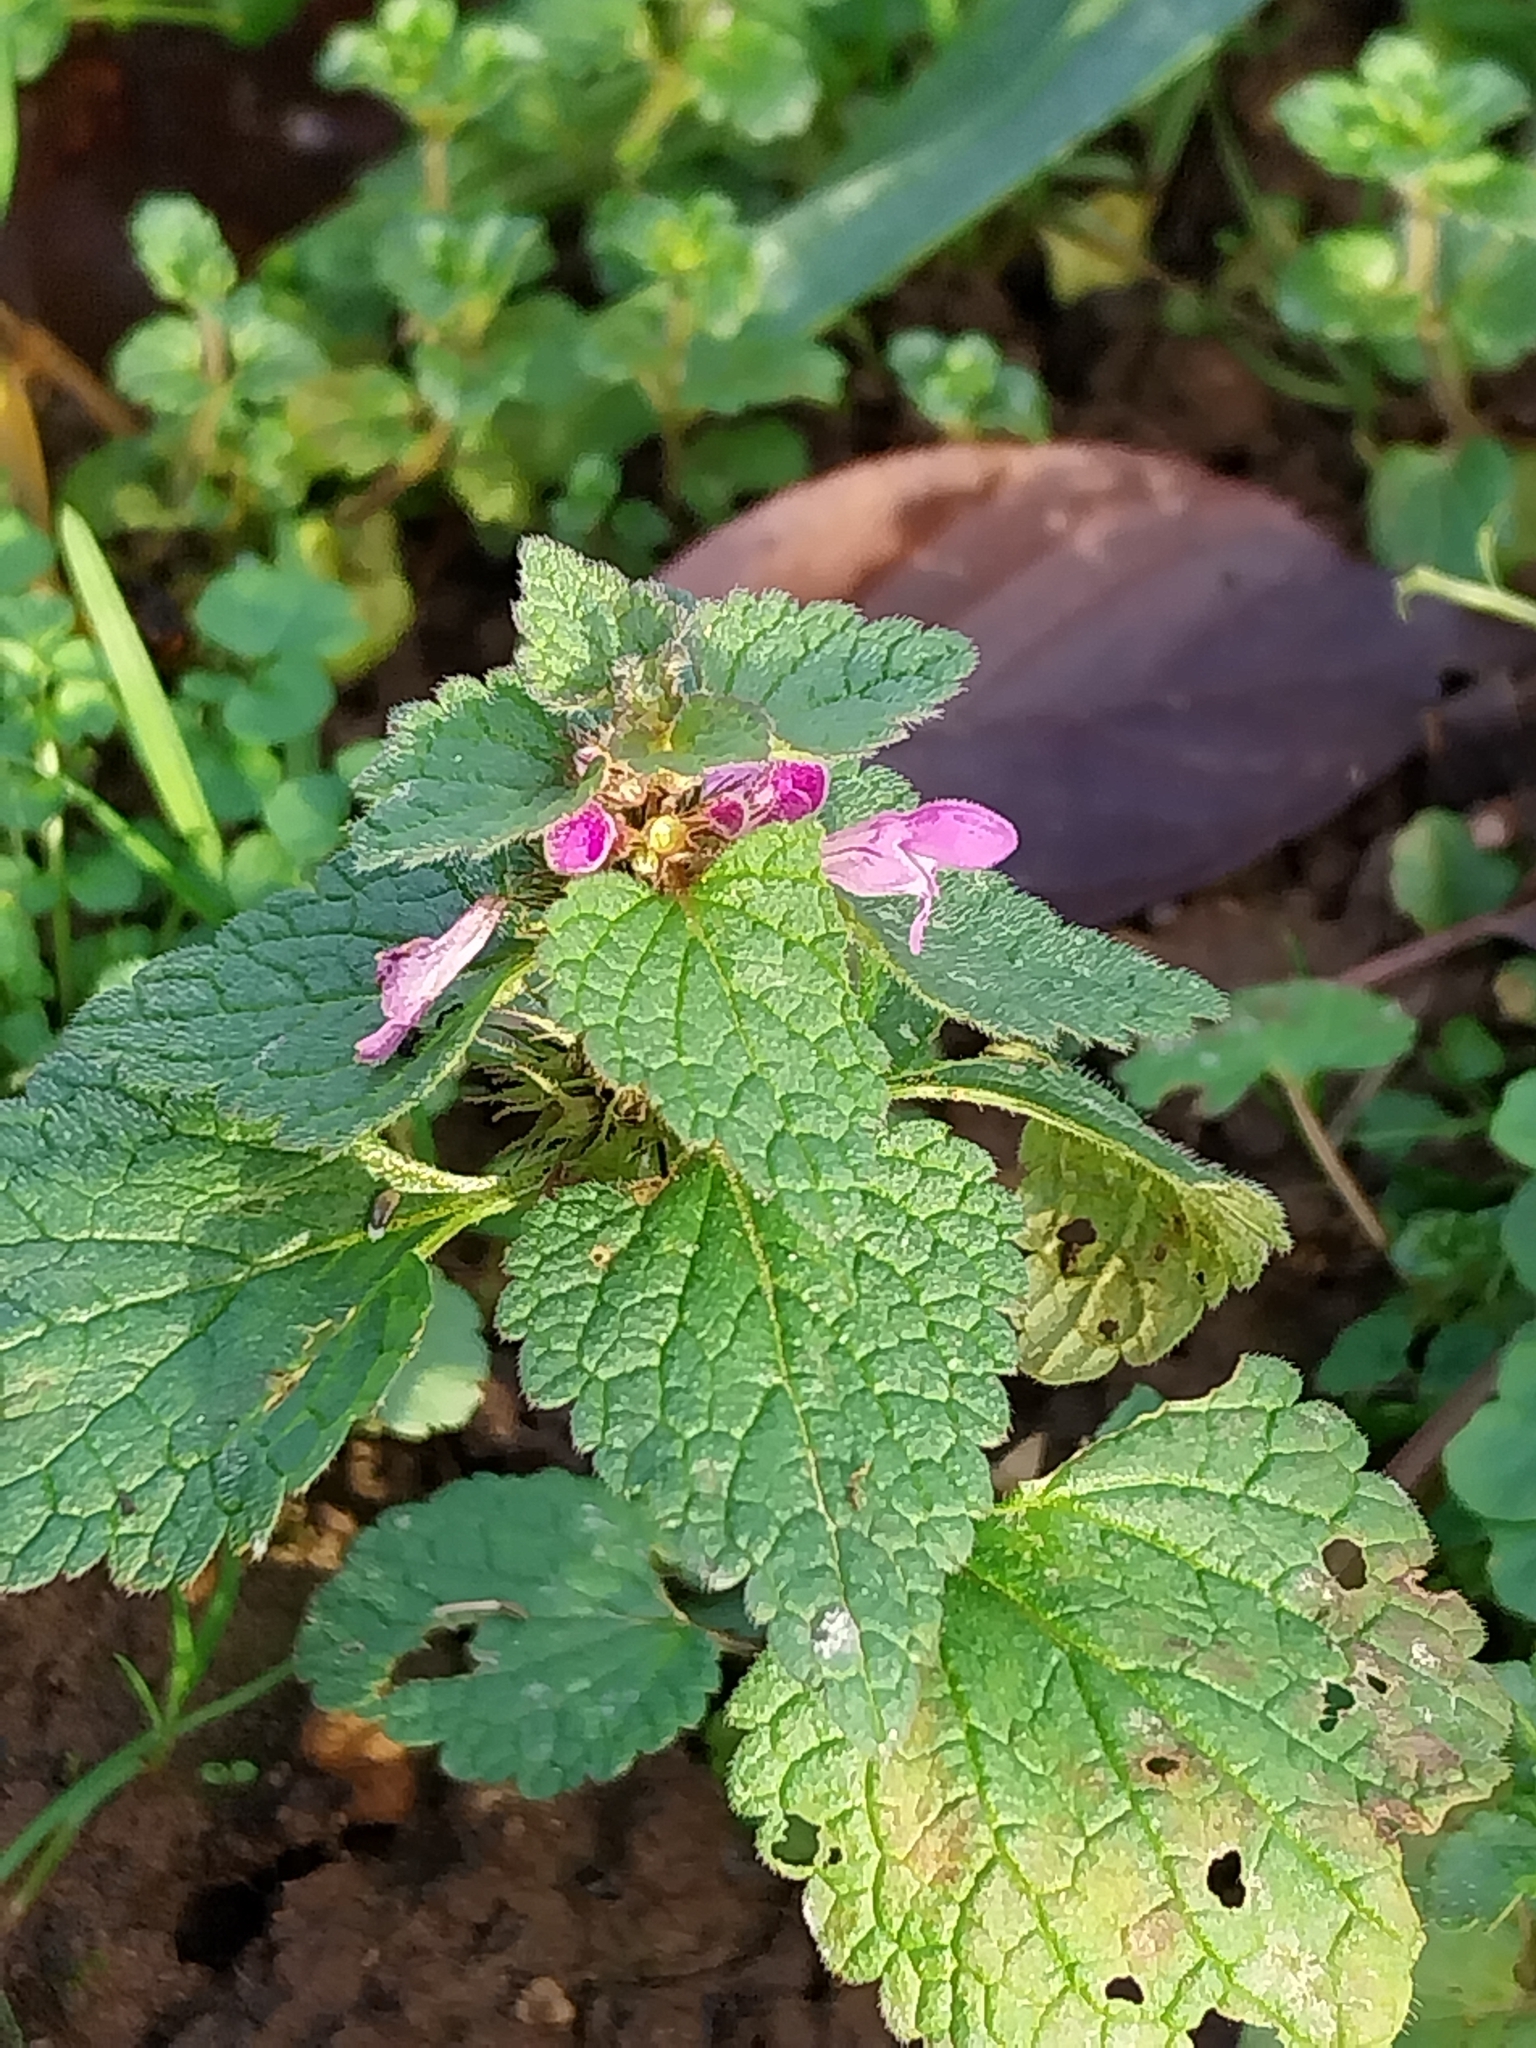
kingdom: Plantae
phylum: Tracheophyta
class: Magnoliopsida
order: Lamiales
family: Lamiaceae
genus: Lamium
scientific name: Lamium purpureum
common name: Red dead-nettle
